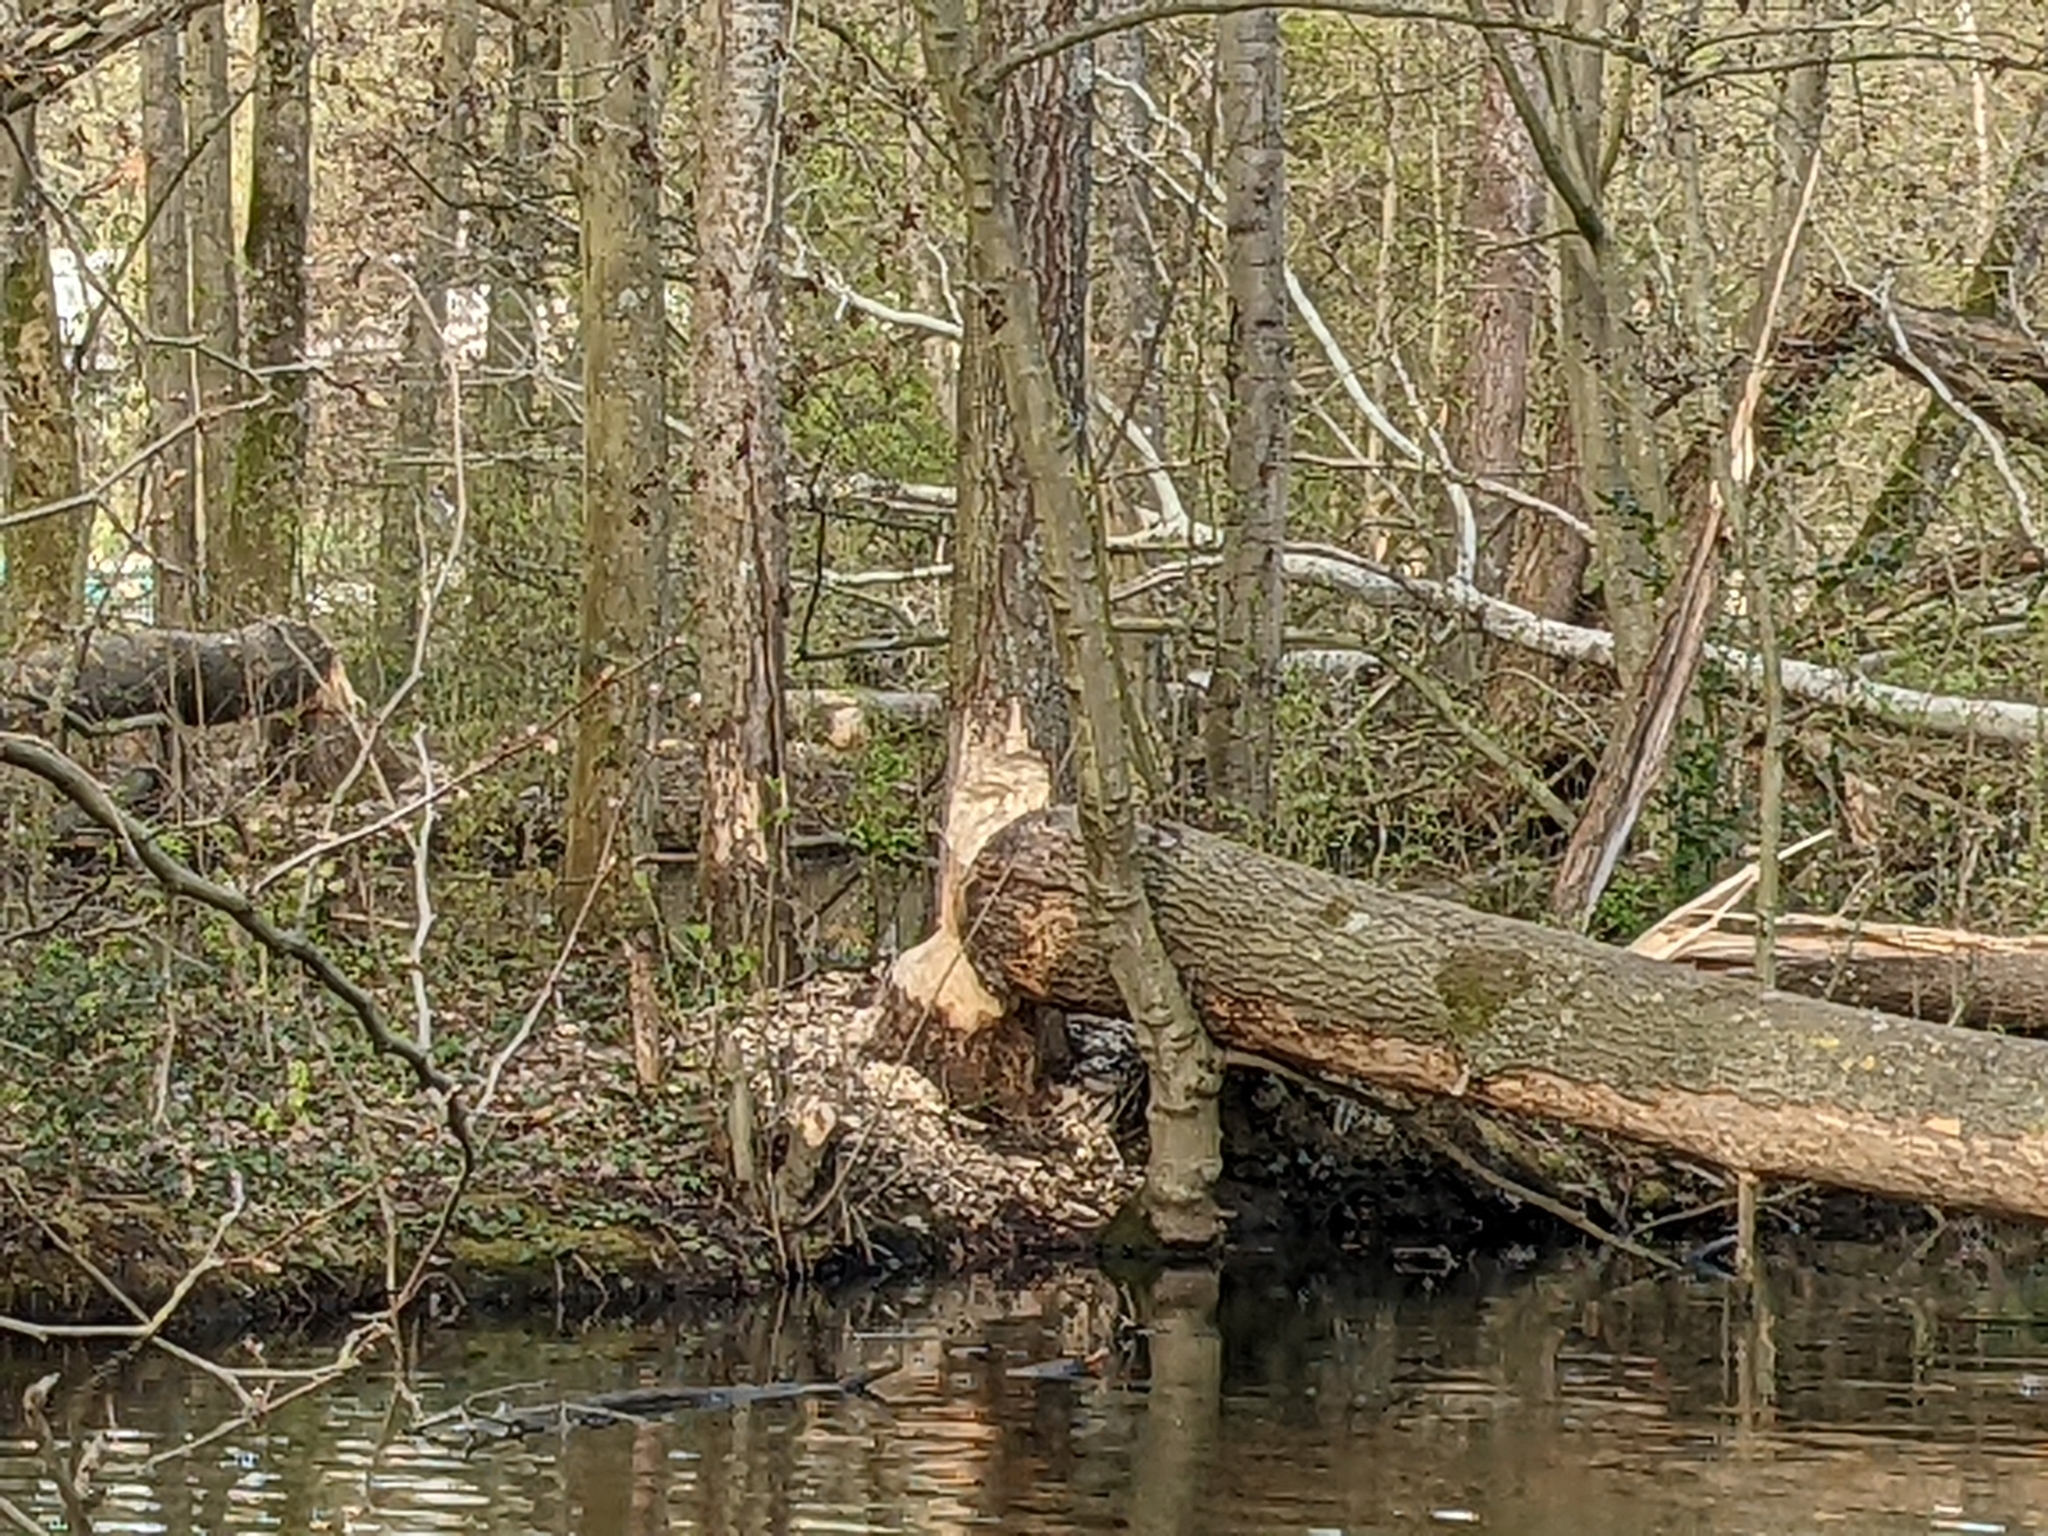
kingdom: Animalia
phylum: Chordata
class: Mammalia
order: Rodentia
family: Castoridae
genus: Castor
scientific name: Castor fiber
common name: Eurasian beaver
